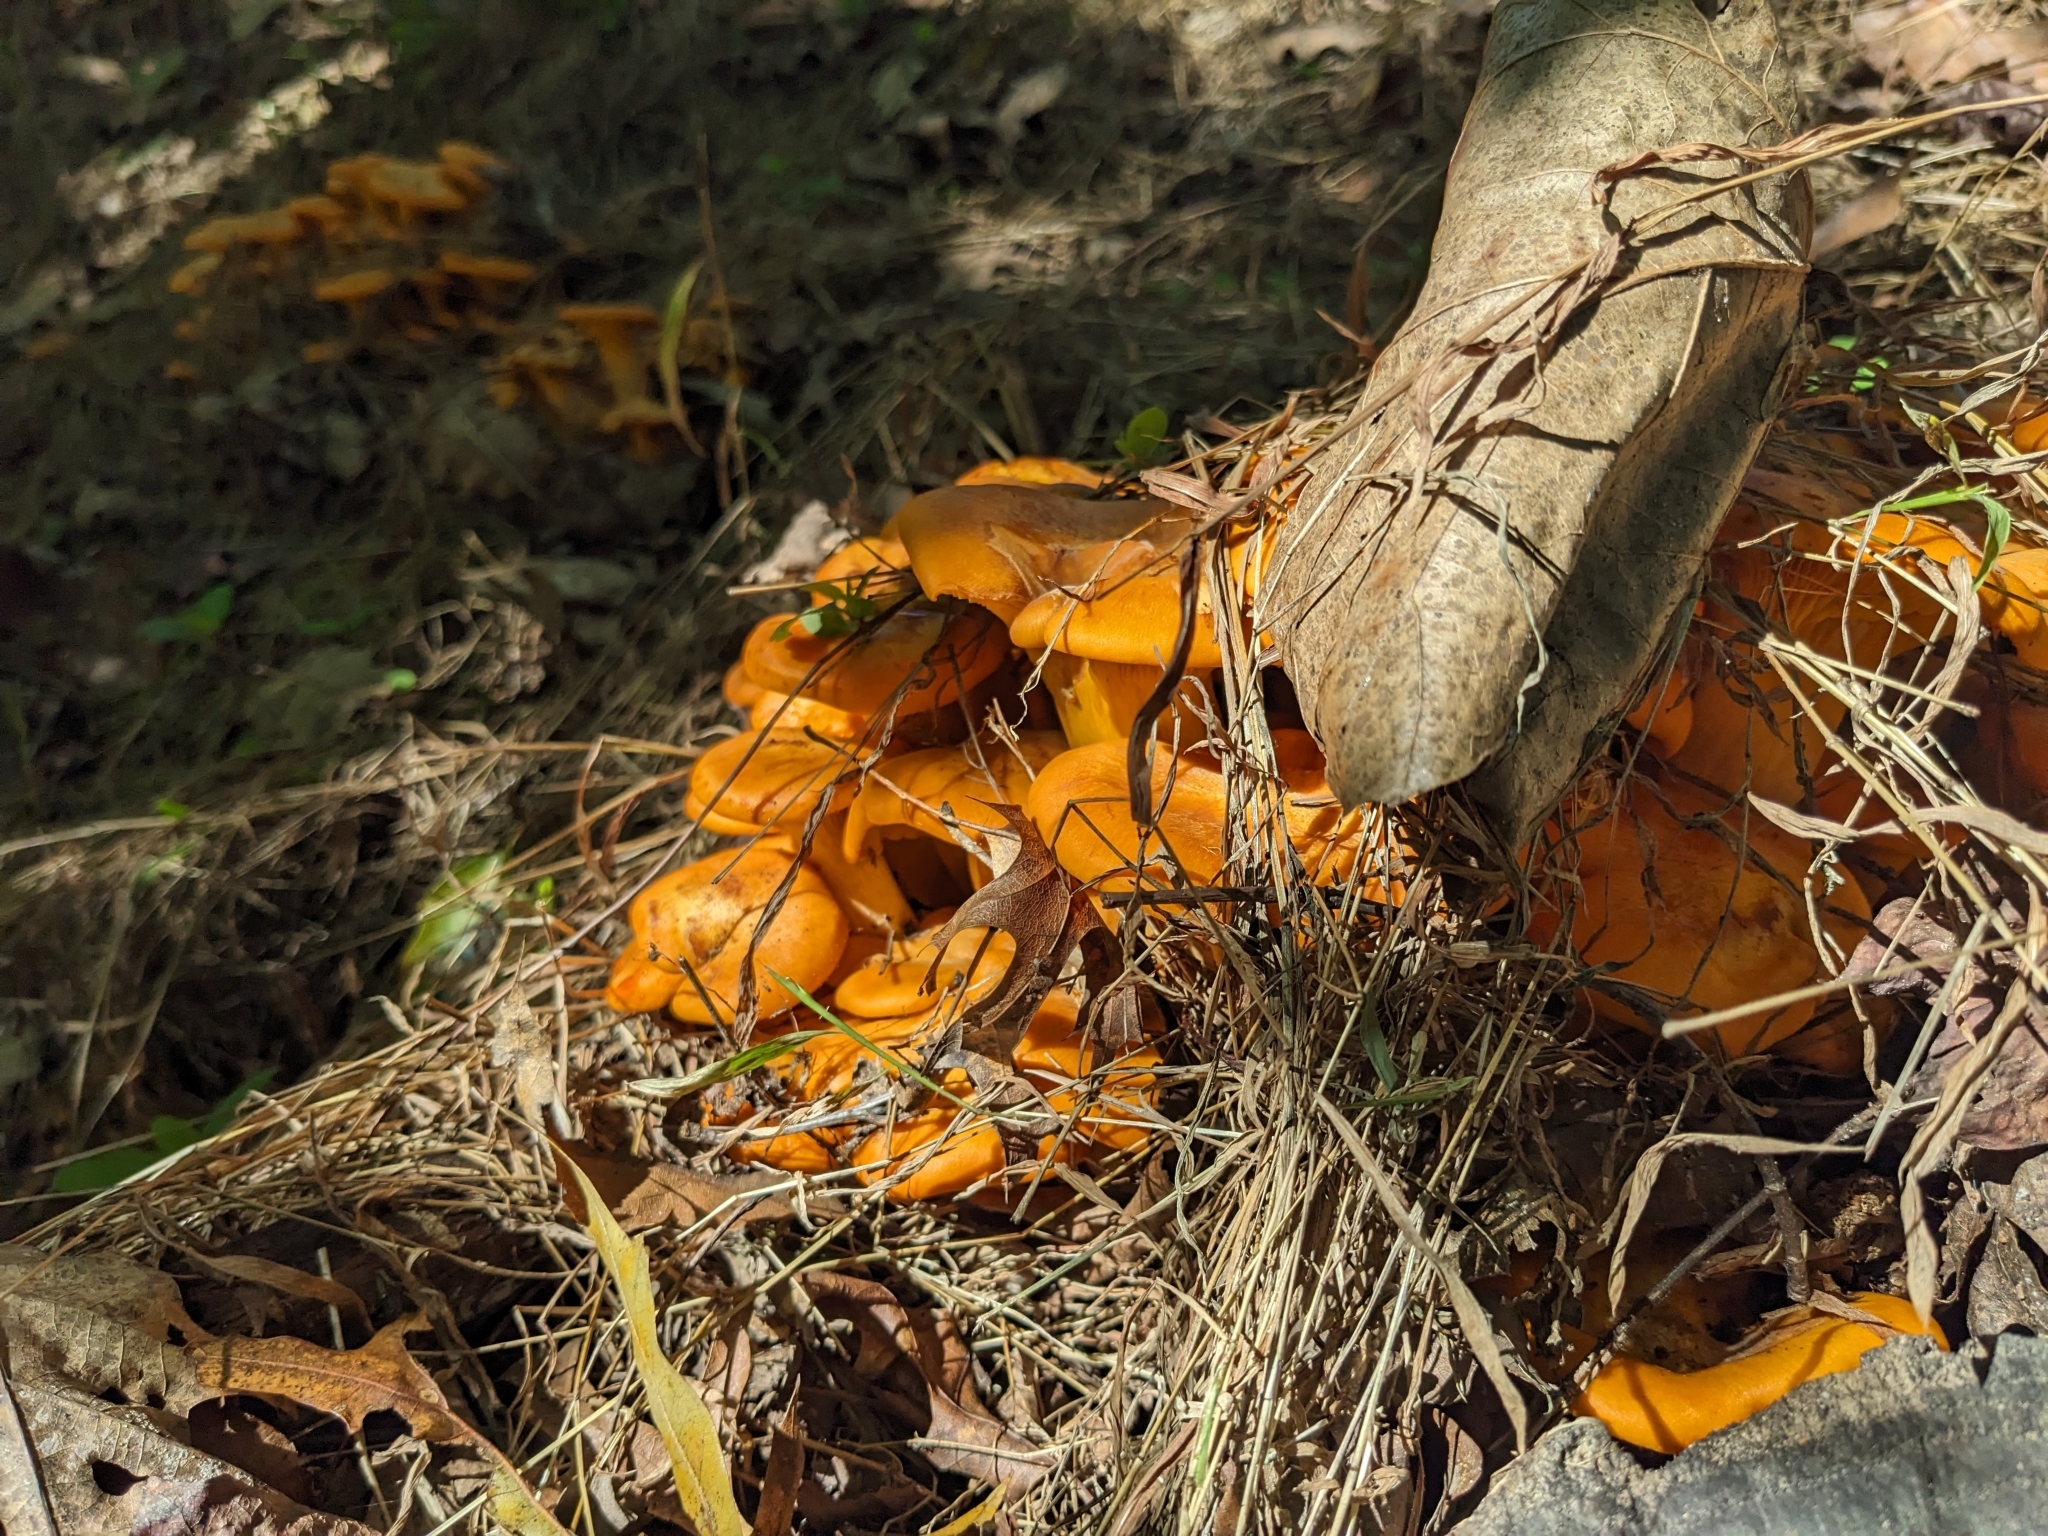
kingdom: Fungi
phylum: Basidiomycota
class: Agaricomycetes
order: Agaricales
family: Omphalotaceae
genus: Omphalotus
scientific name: Omphalotus illudens
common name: Jack o lantern
